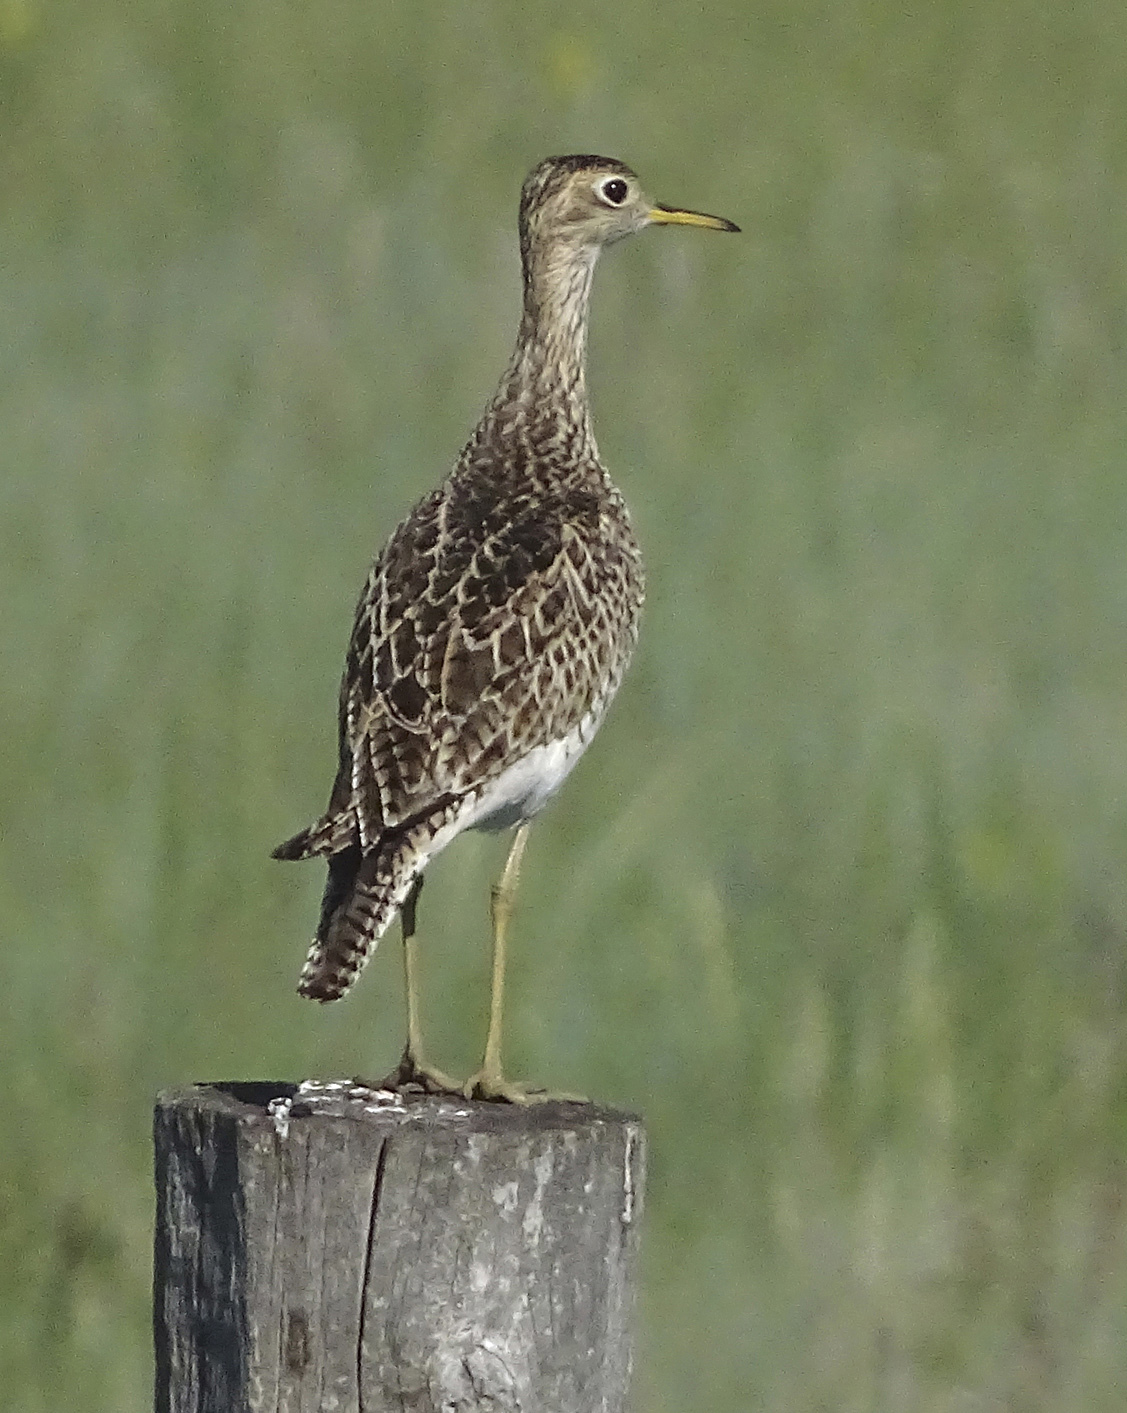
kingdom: Animalia
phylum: Chordata
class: Aves
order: Charadriiformes
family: Scolopacidae
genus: Bartramia
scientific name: Bartramia longicauda
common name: Upland sandpiper
